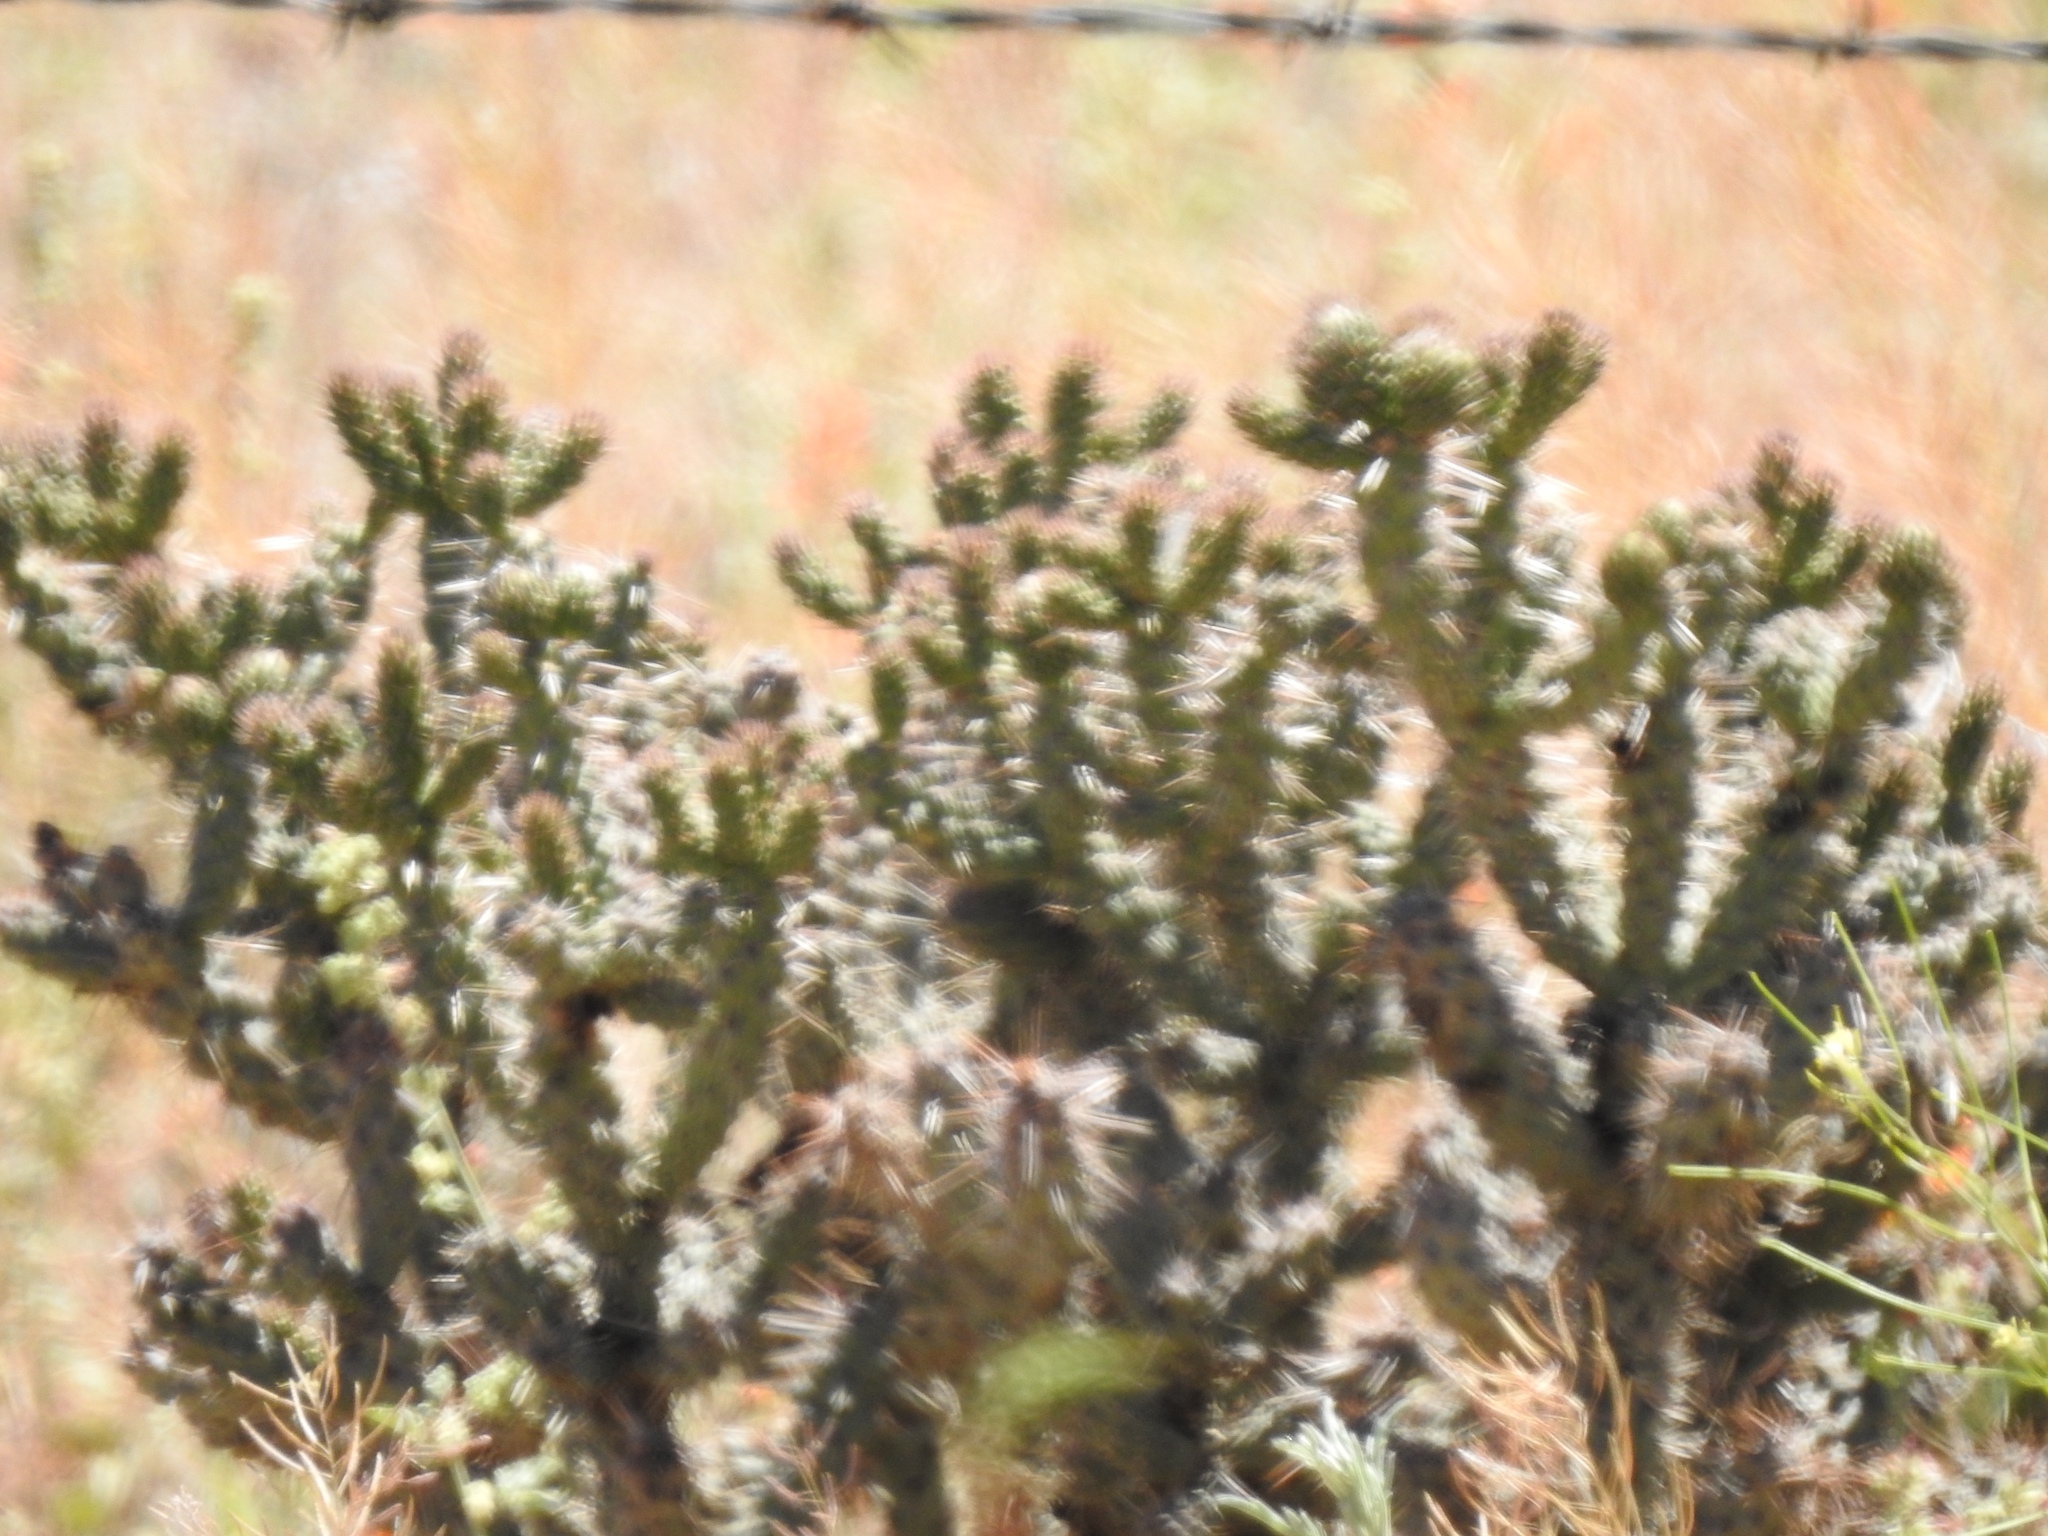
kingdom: Plantae
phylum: Tracheophyta
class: Magnoliopsida
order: Caryophyllales
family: Cactaceae
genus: Cylindropuntia
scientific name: Cylindropuntia whipplei
